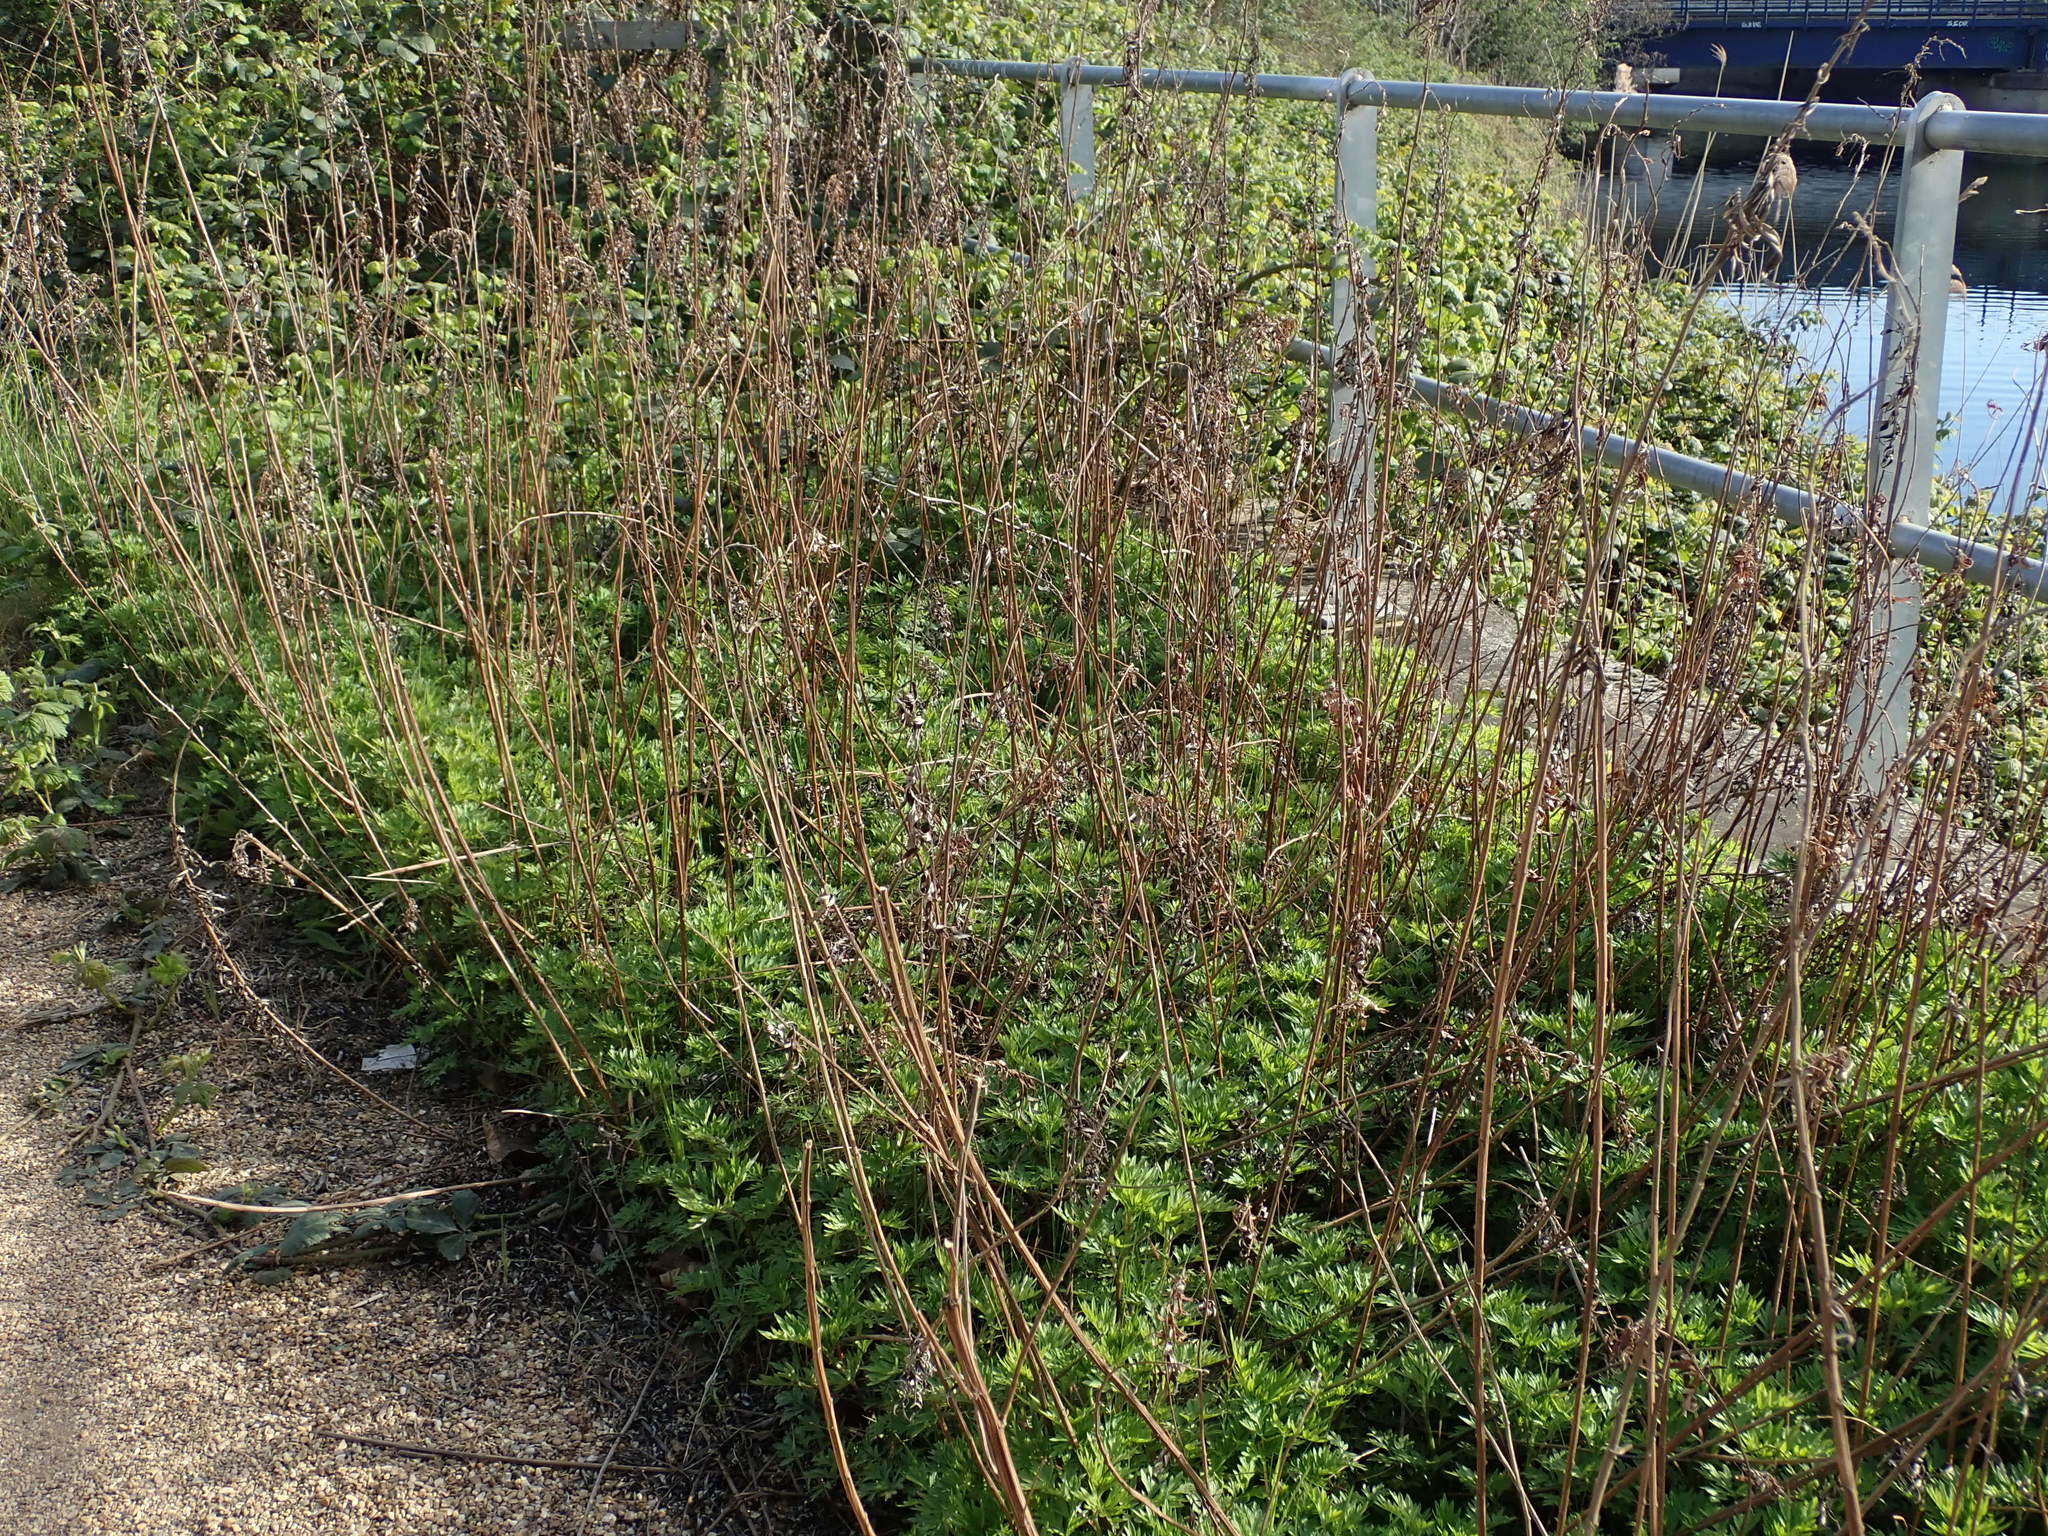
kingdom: Plantae
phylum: Tracheophyta
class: Magnoliopsida
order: Asterales
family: Asteraceae
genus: Artemisia
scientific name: Artemisia vulgaris
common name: Mugwort
